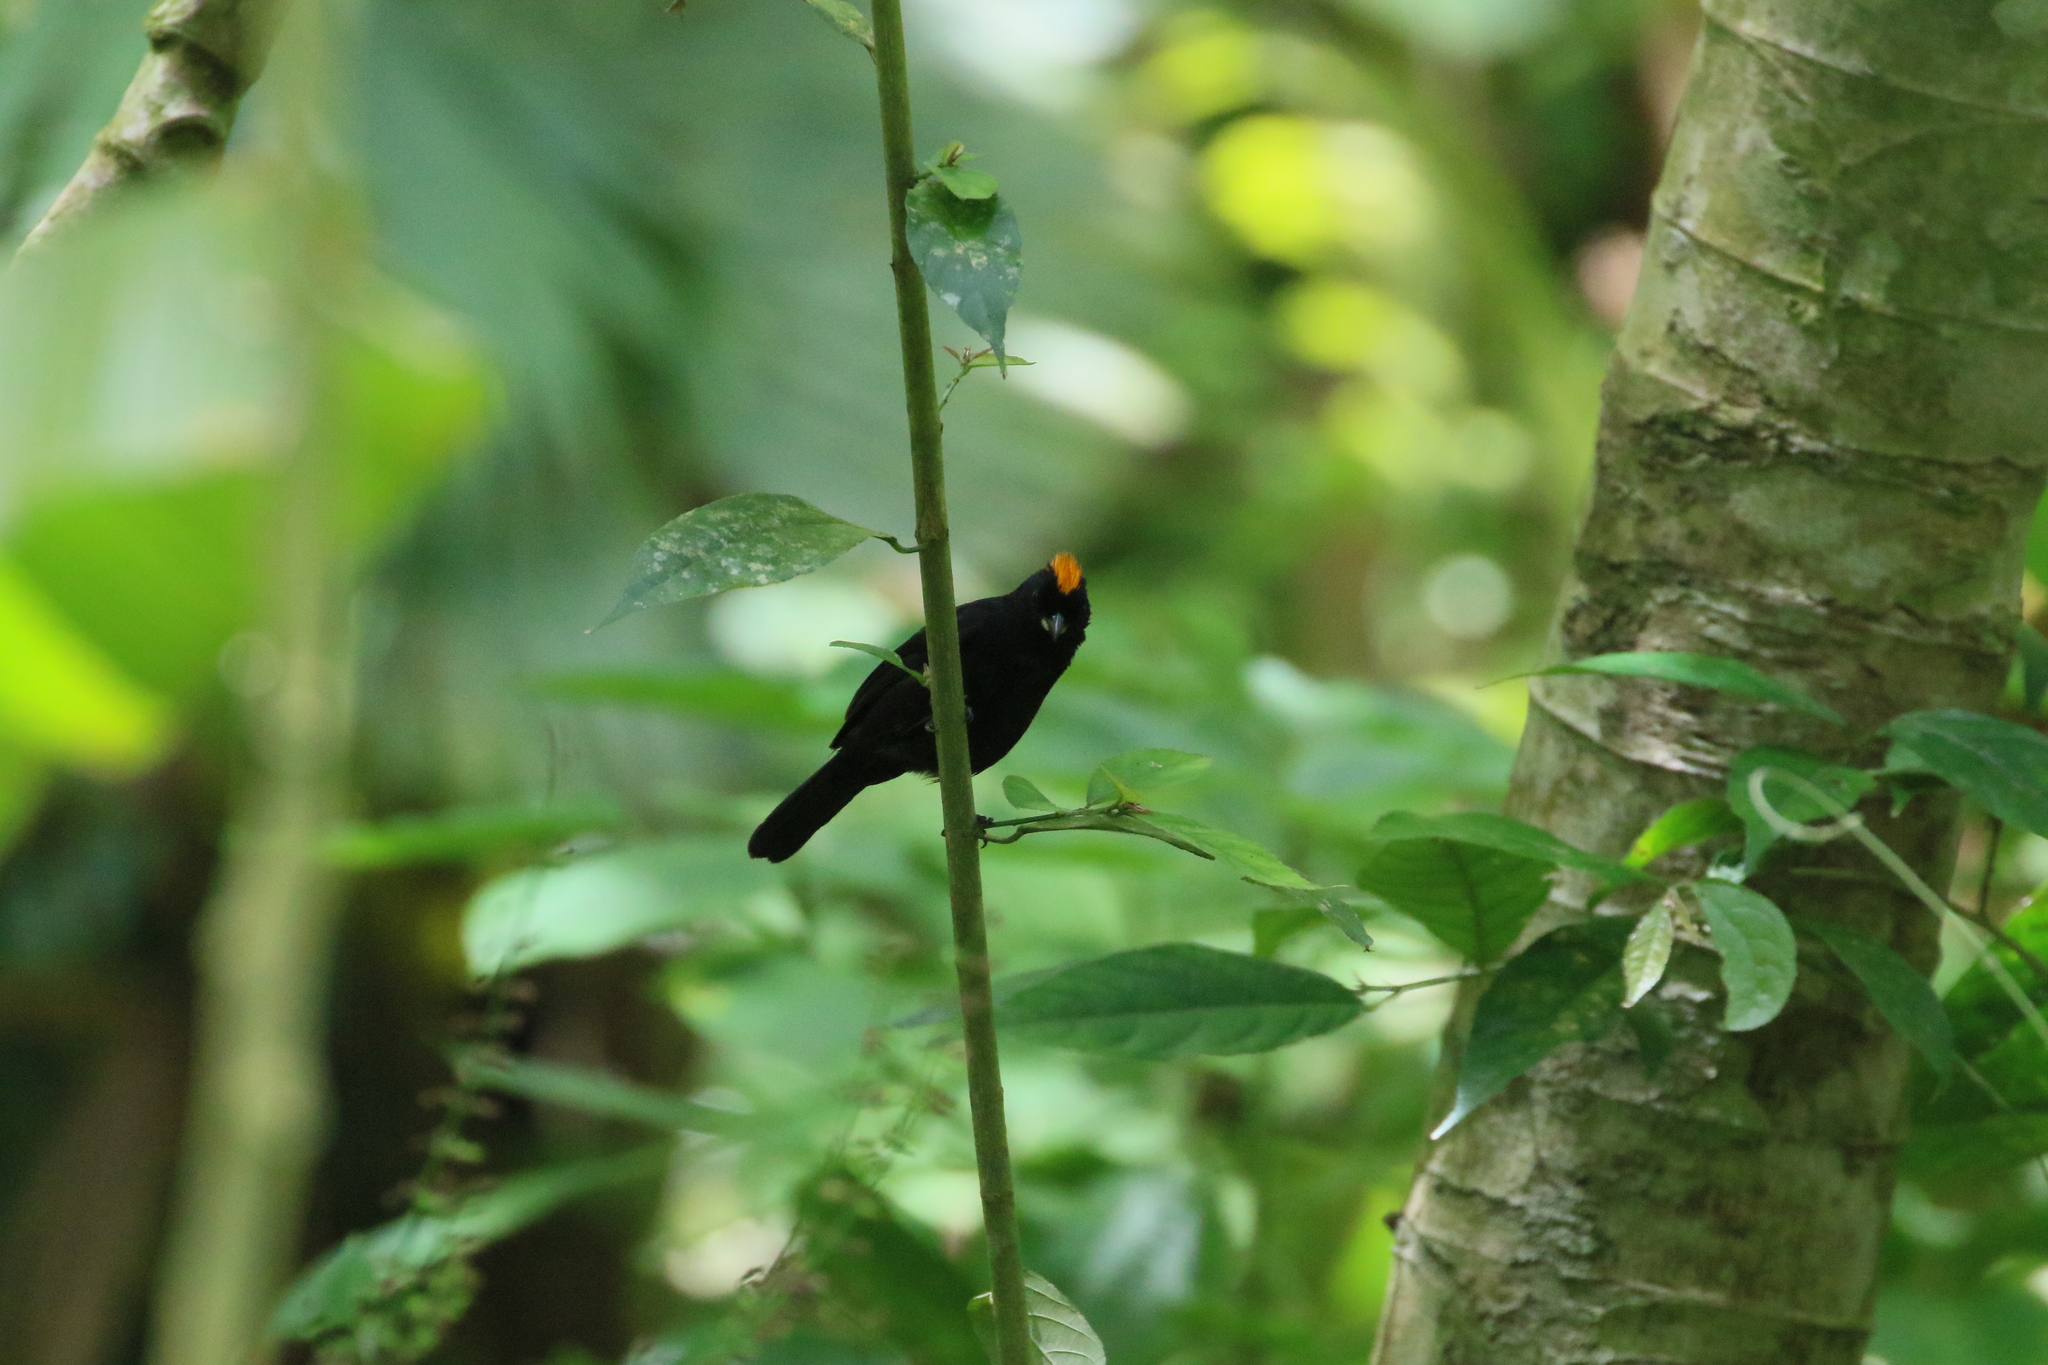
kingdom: Animalia
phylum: Chordata
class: Aves
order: Passeriformes
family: Thraupidae
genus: Tachyphonus
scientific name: Tachyphonus delatrii
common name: Tawny-crested tanager
